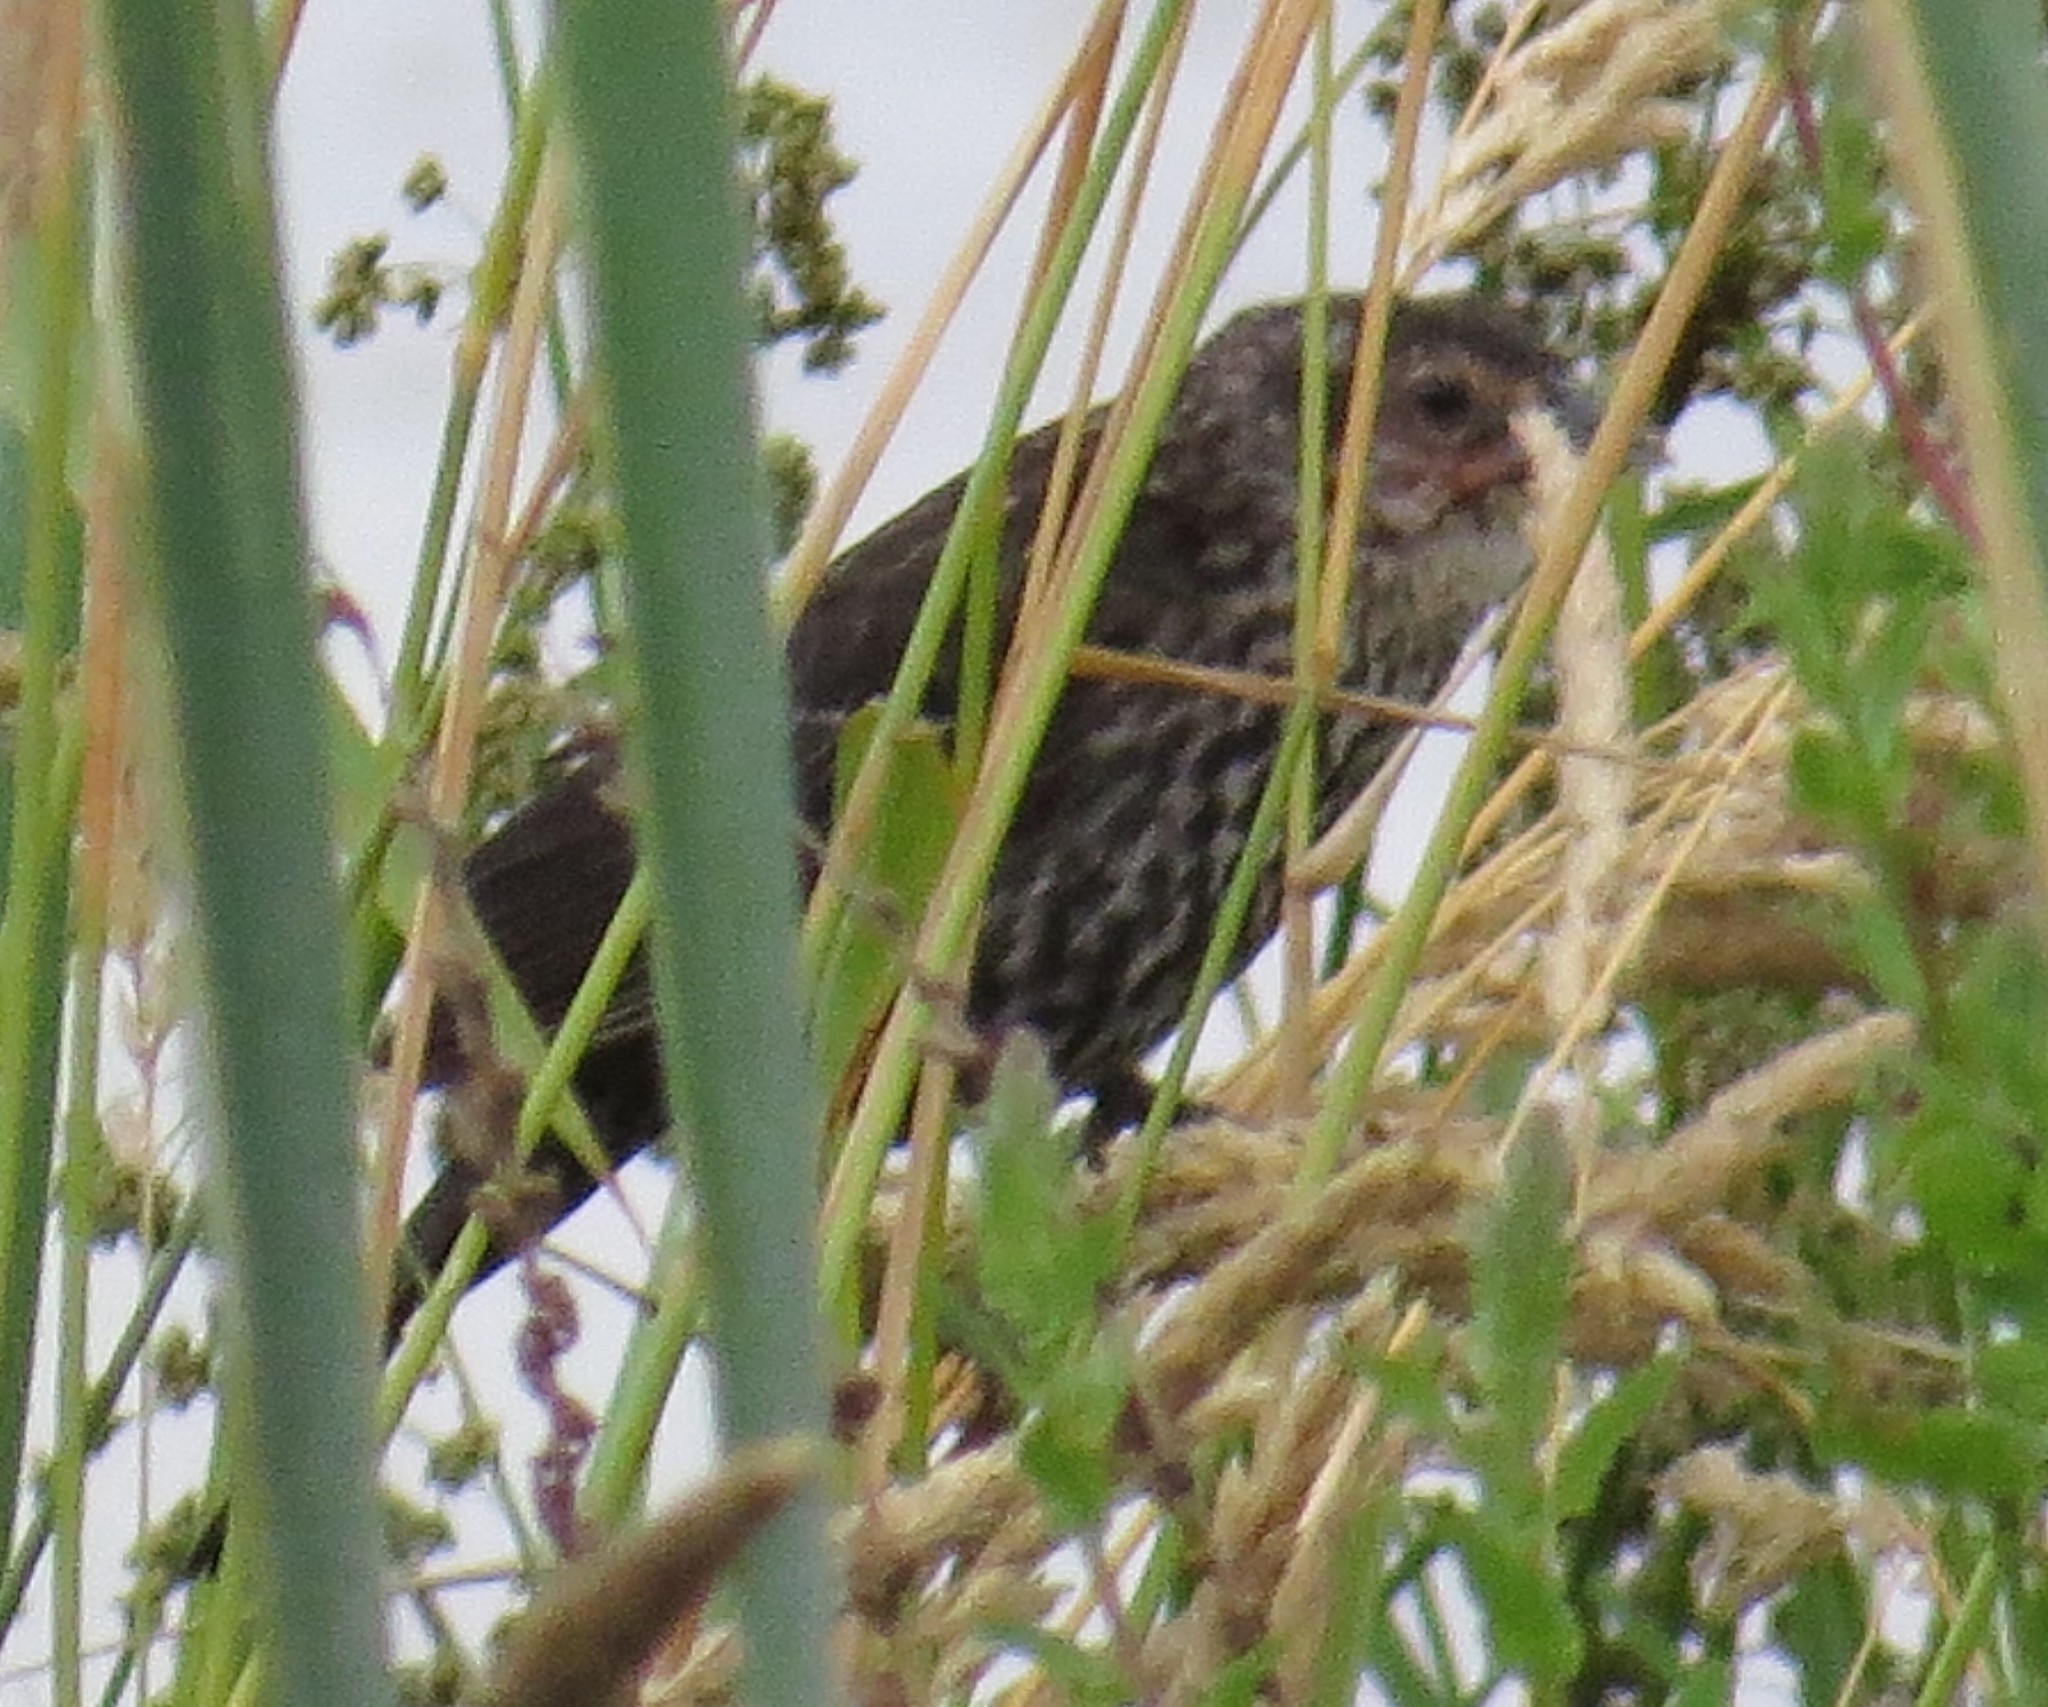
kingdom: Animalia
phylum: Chordata
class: Aves
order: Passeriformes
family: Icteridae
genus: Agelaius
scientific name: Agelaius phoeniceus
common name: Red-winged blackbird
